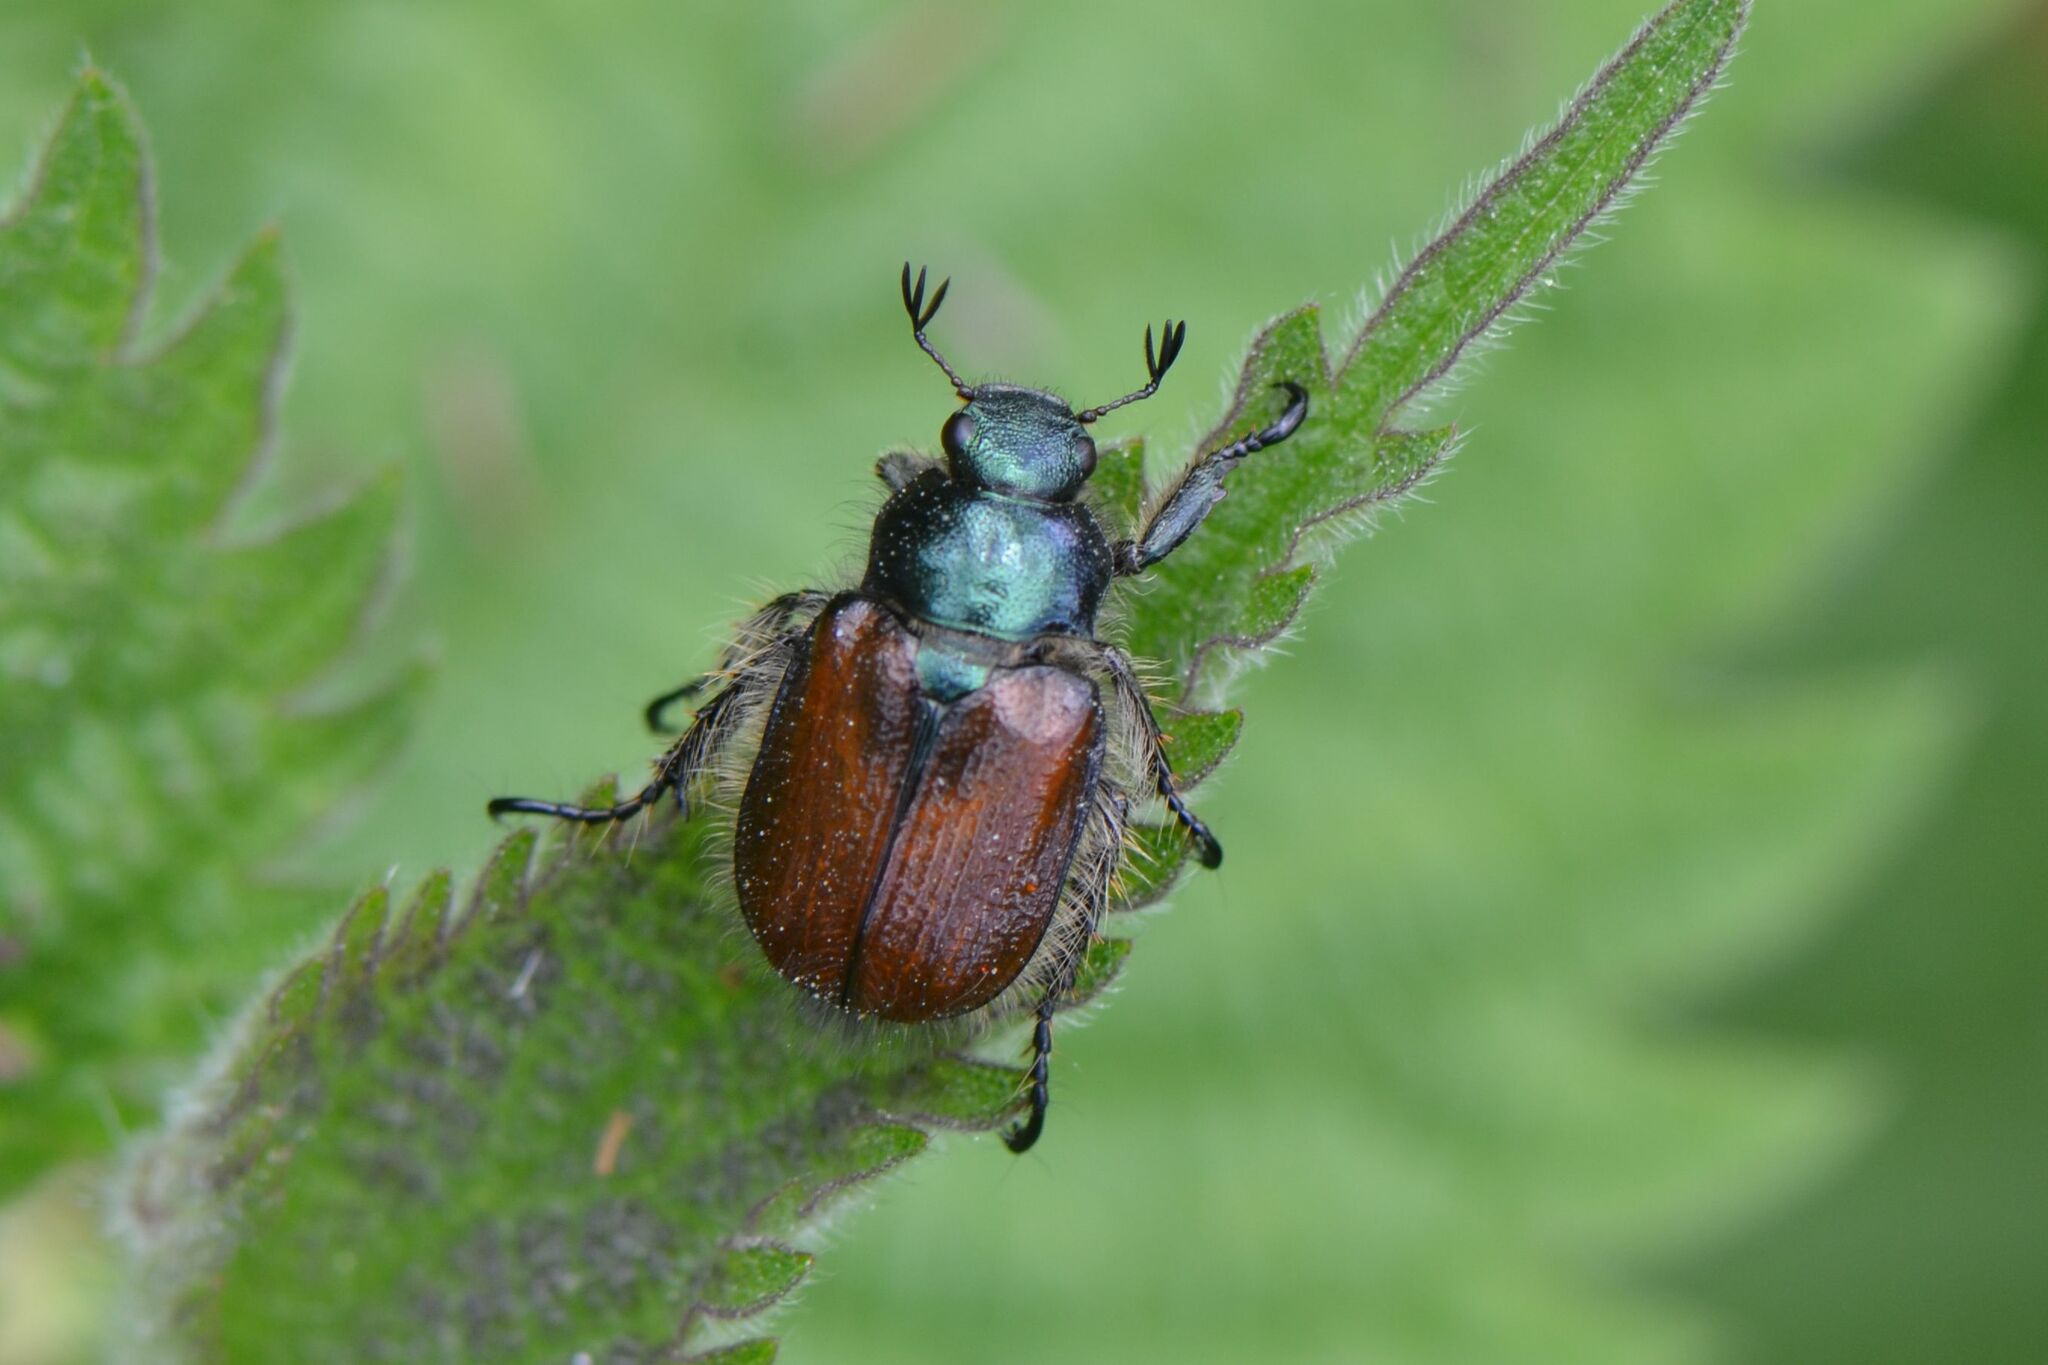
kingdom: Animalia
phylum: Arthropoda
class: Insecta
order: Coleoptera
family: Scarabaeidae
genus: Phyllopertha
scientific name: Phyllopertha horticola
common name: Garden chafer
